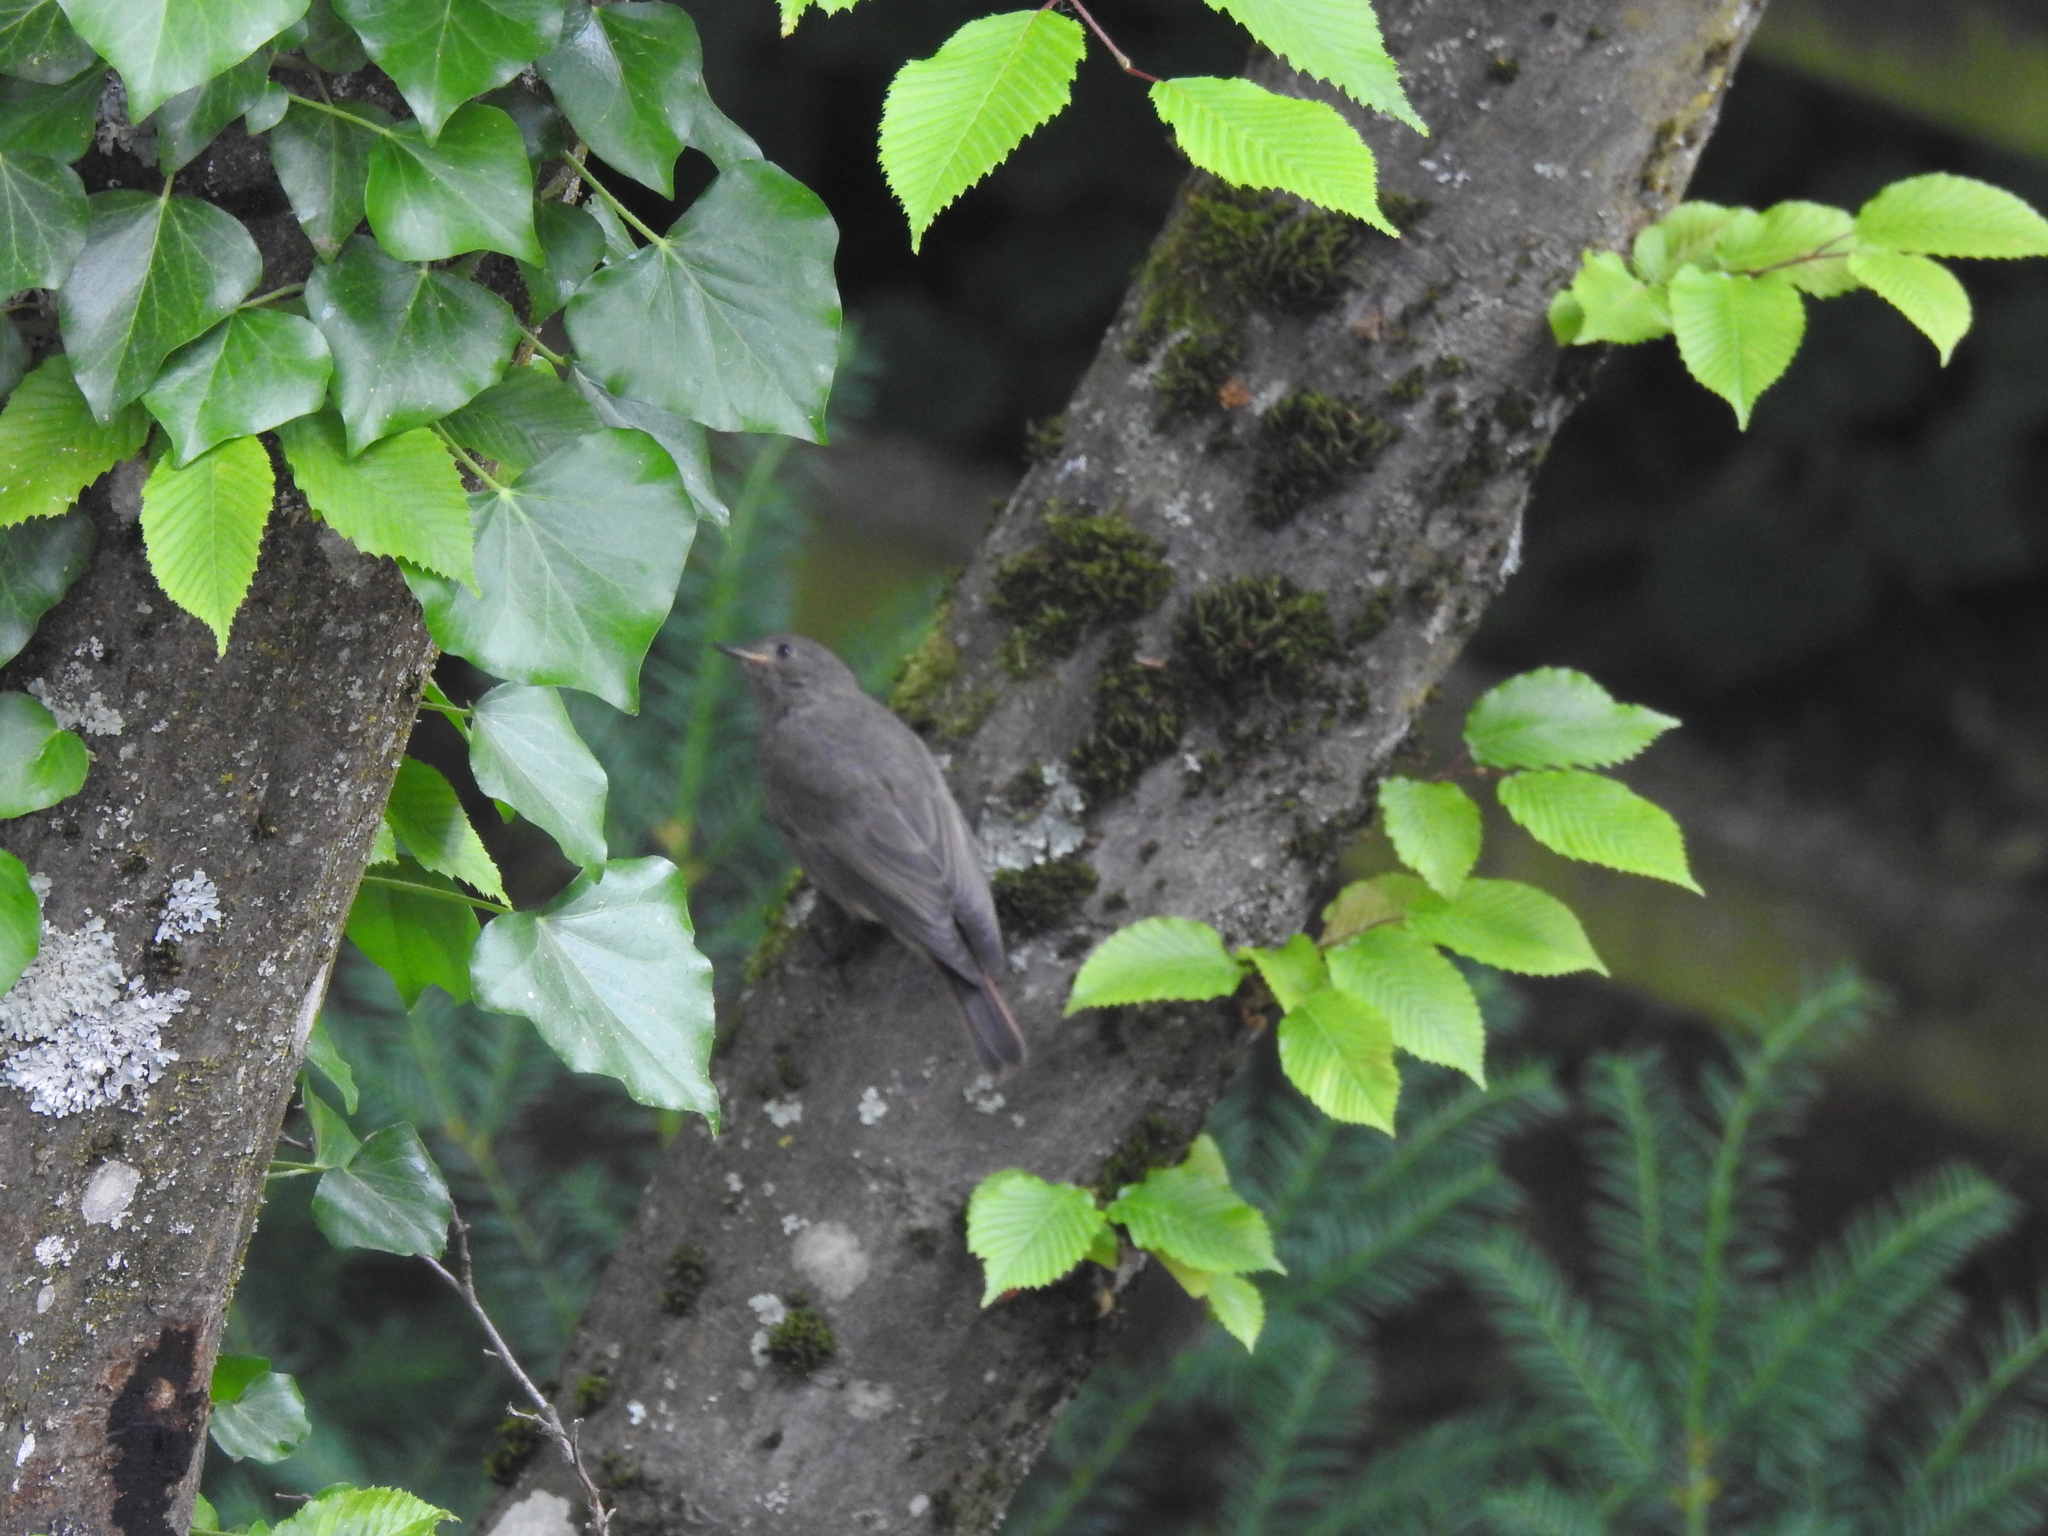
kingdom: Animalia
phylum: Chordata
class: Aves
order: Passeriformes
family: Turdidae
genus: Turdus
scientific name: Turdus merula
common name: Common blackbird
